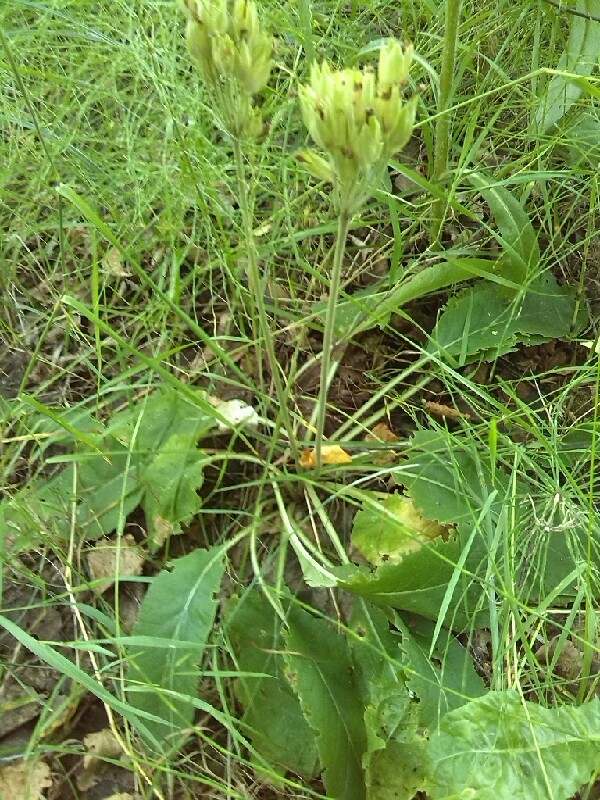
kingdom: Plantae
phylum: Tracheophyta
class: Magnoliopsida
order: Ericales
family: Primulaceae
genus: Primula
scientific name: Primula veris
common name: Cowslip
